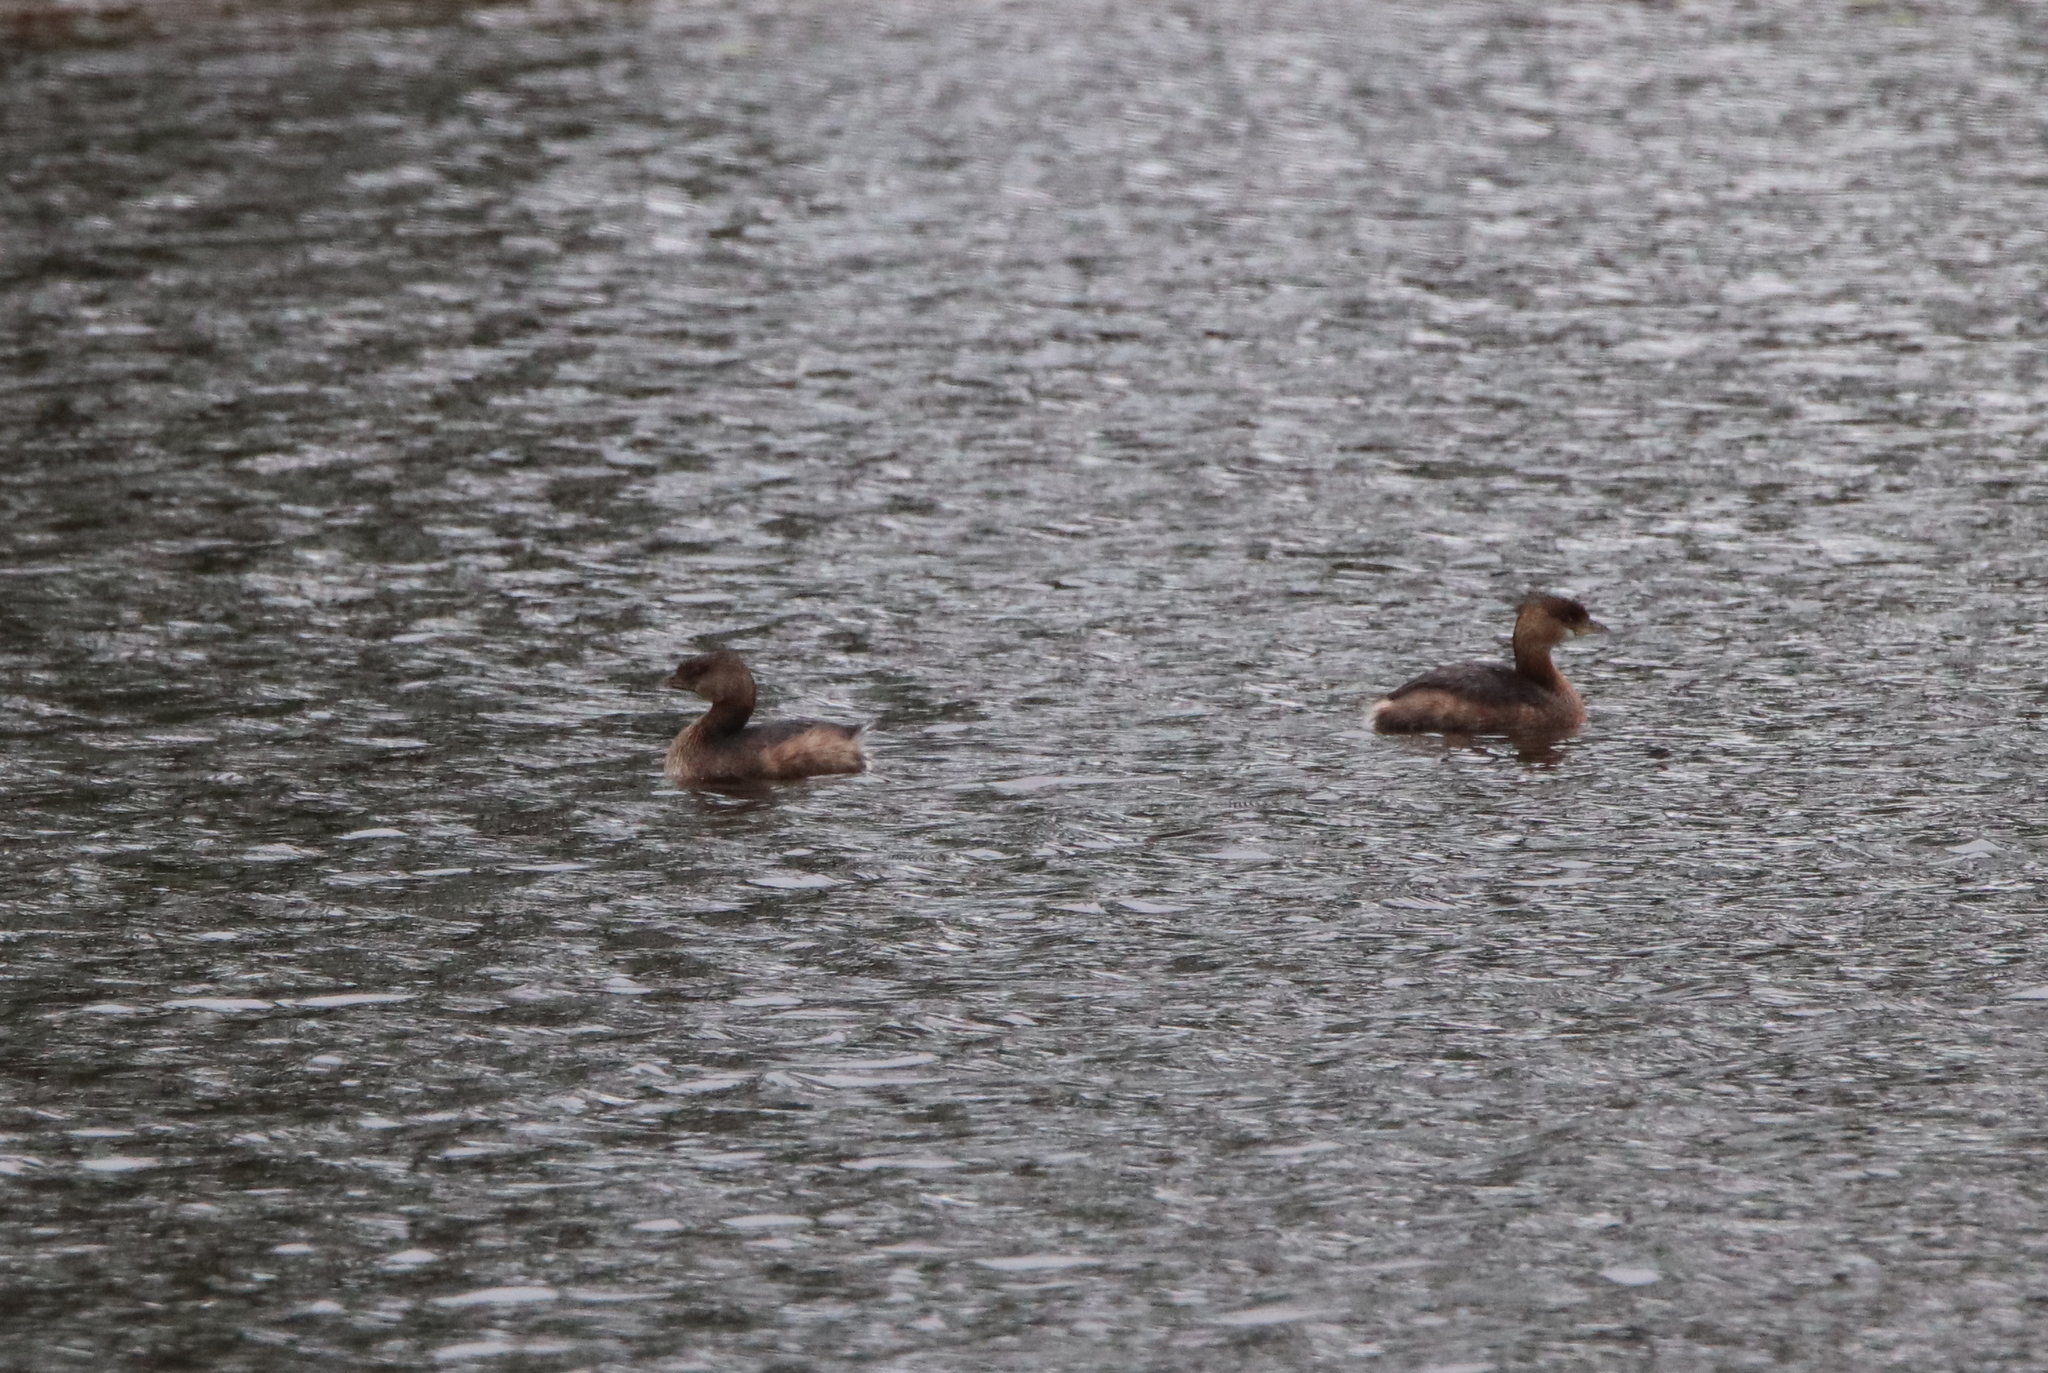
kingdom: Animalia
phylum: Chordata
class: Aves
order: Podicipediformes
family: Podicipedidae
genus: Podilymbus
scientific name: Podilymbus podiceps
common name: Pied-billed grebe
